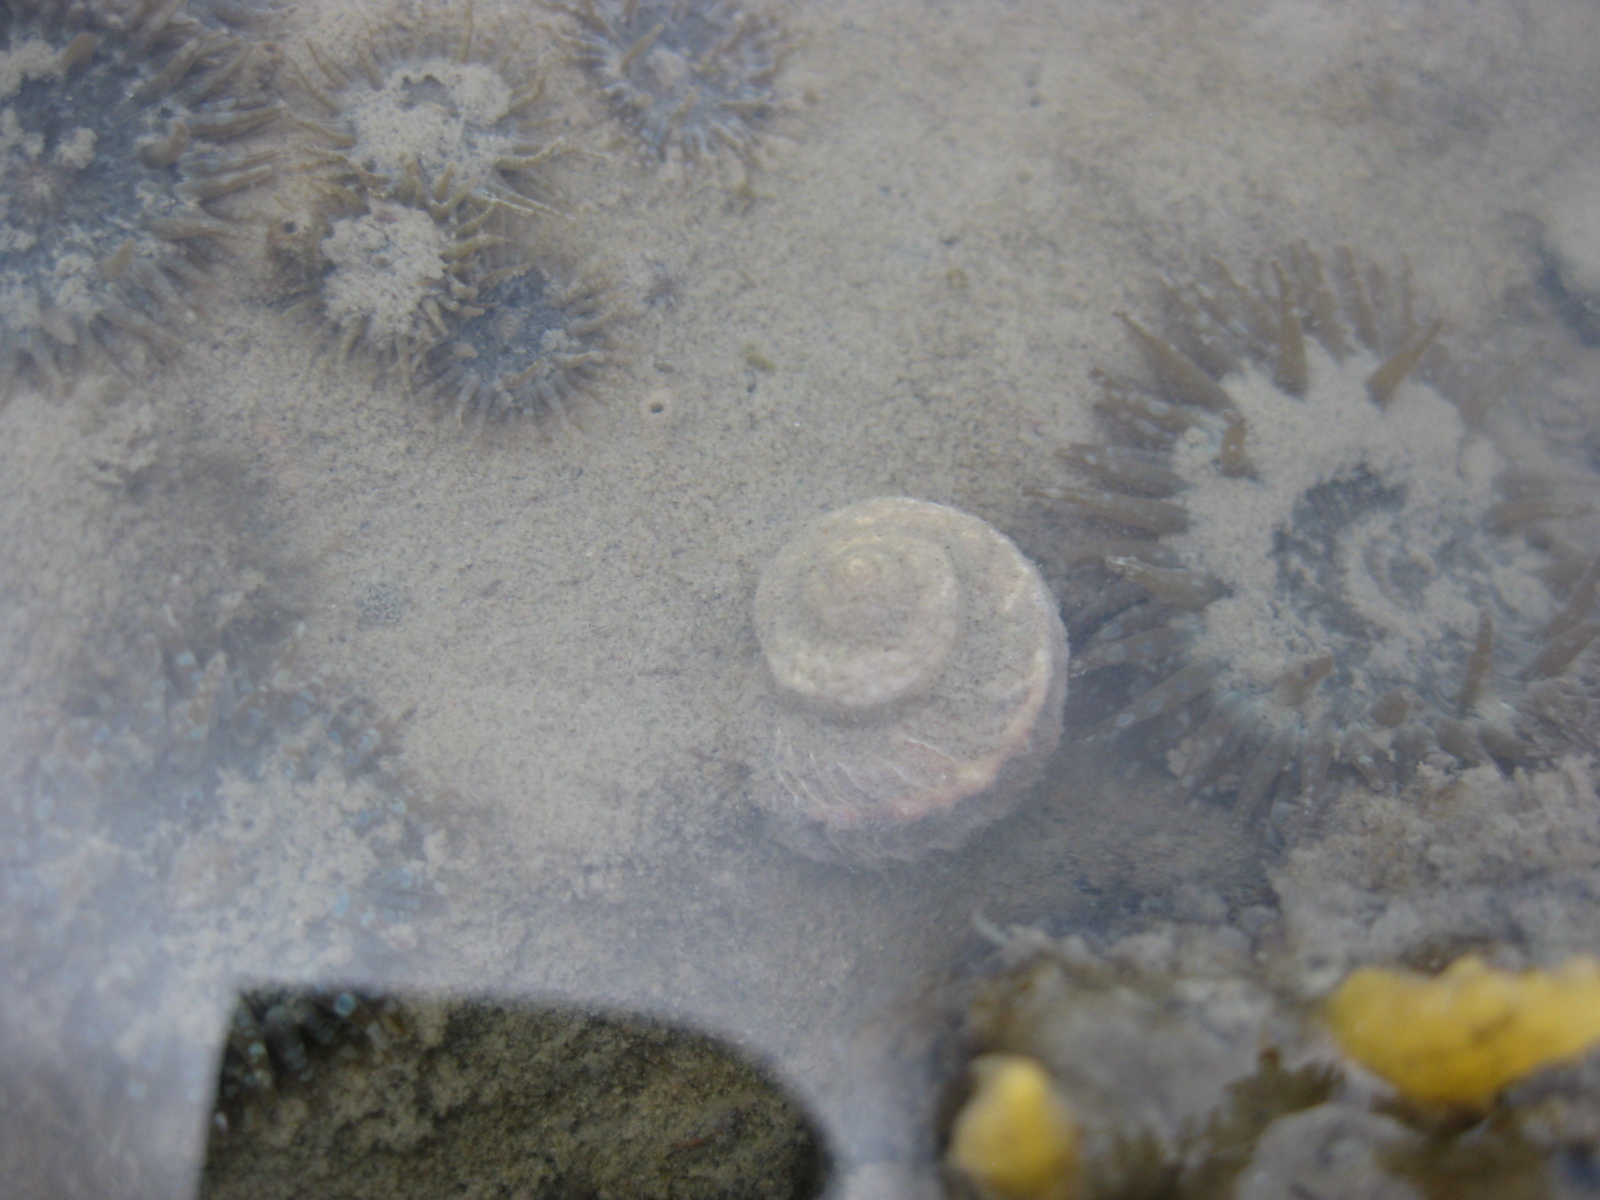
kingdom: Animalia
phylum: Mollusca
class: Gastropoda
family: Amphibolidae
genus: Amphibola
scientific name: Amphibola crenata
